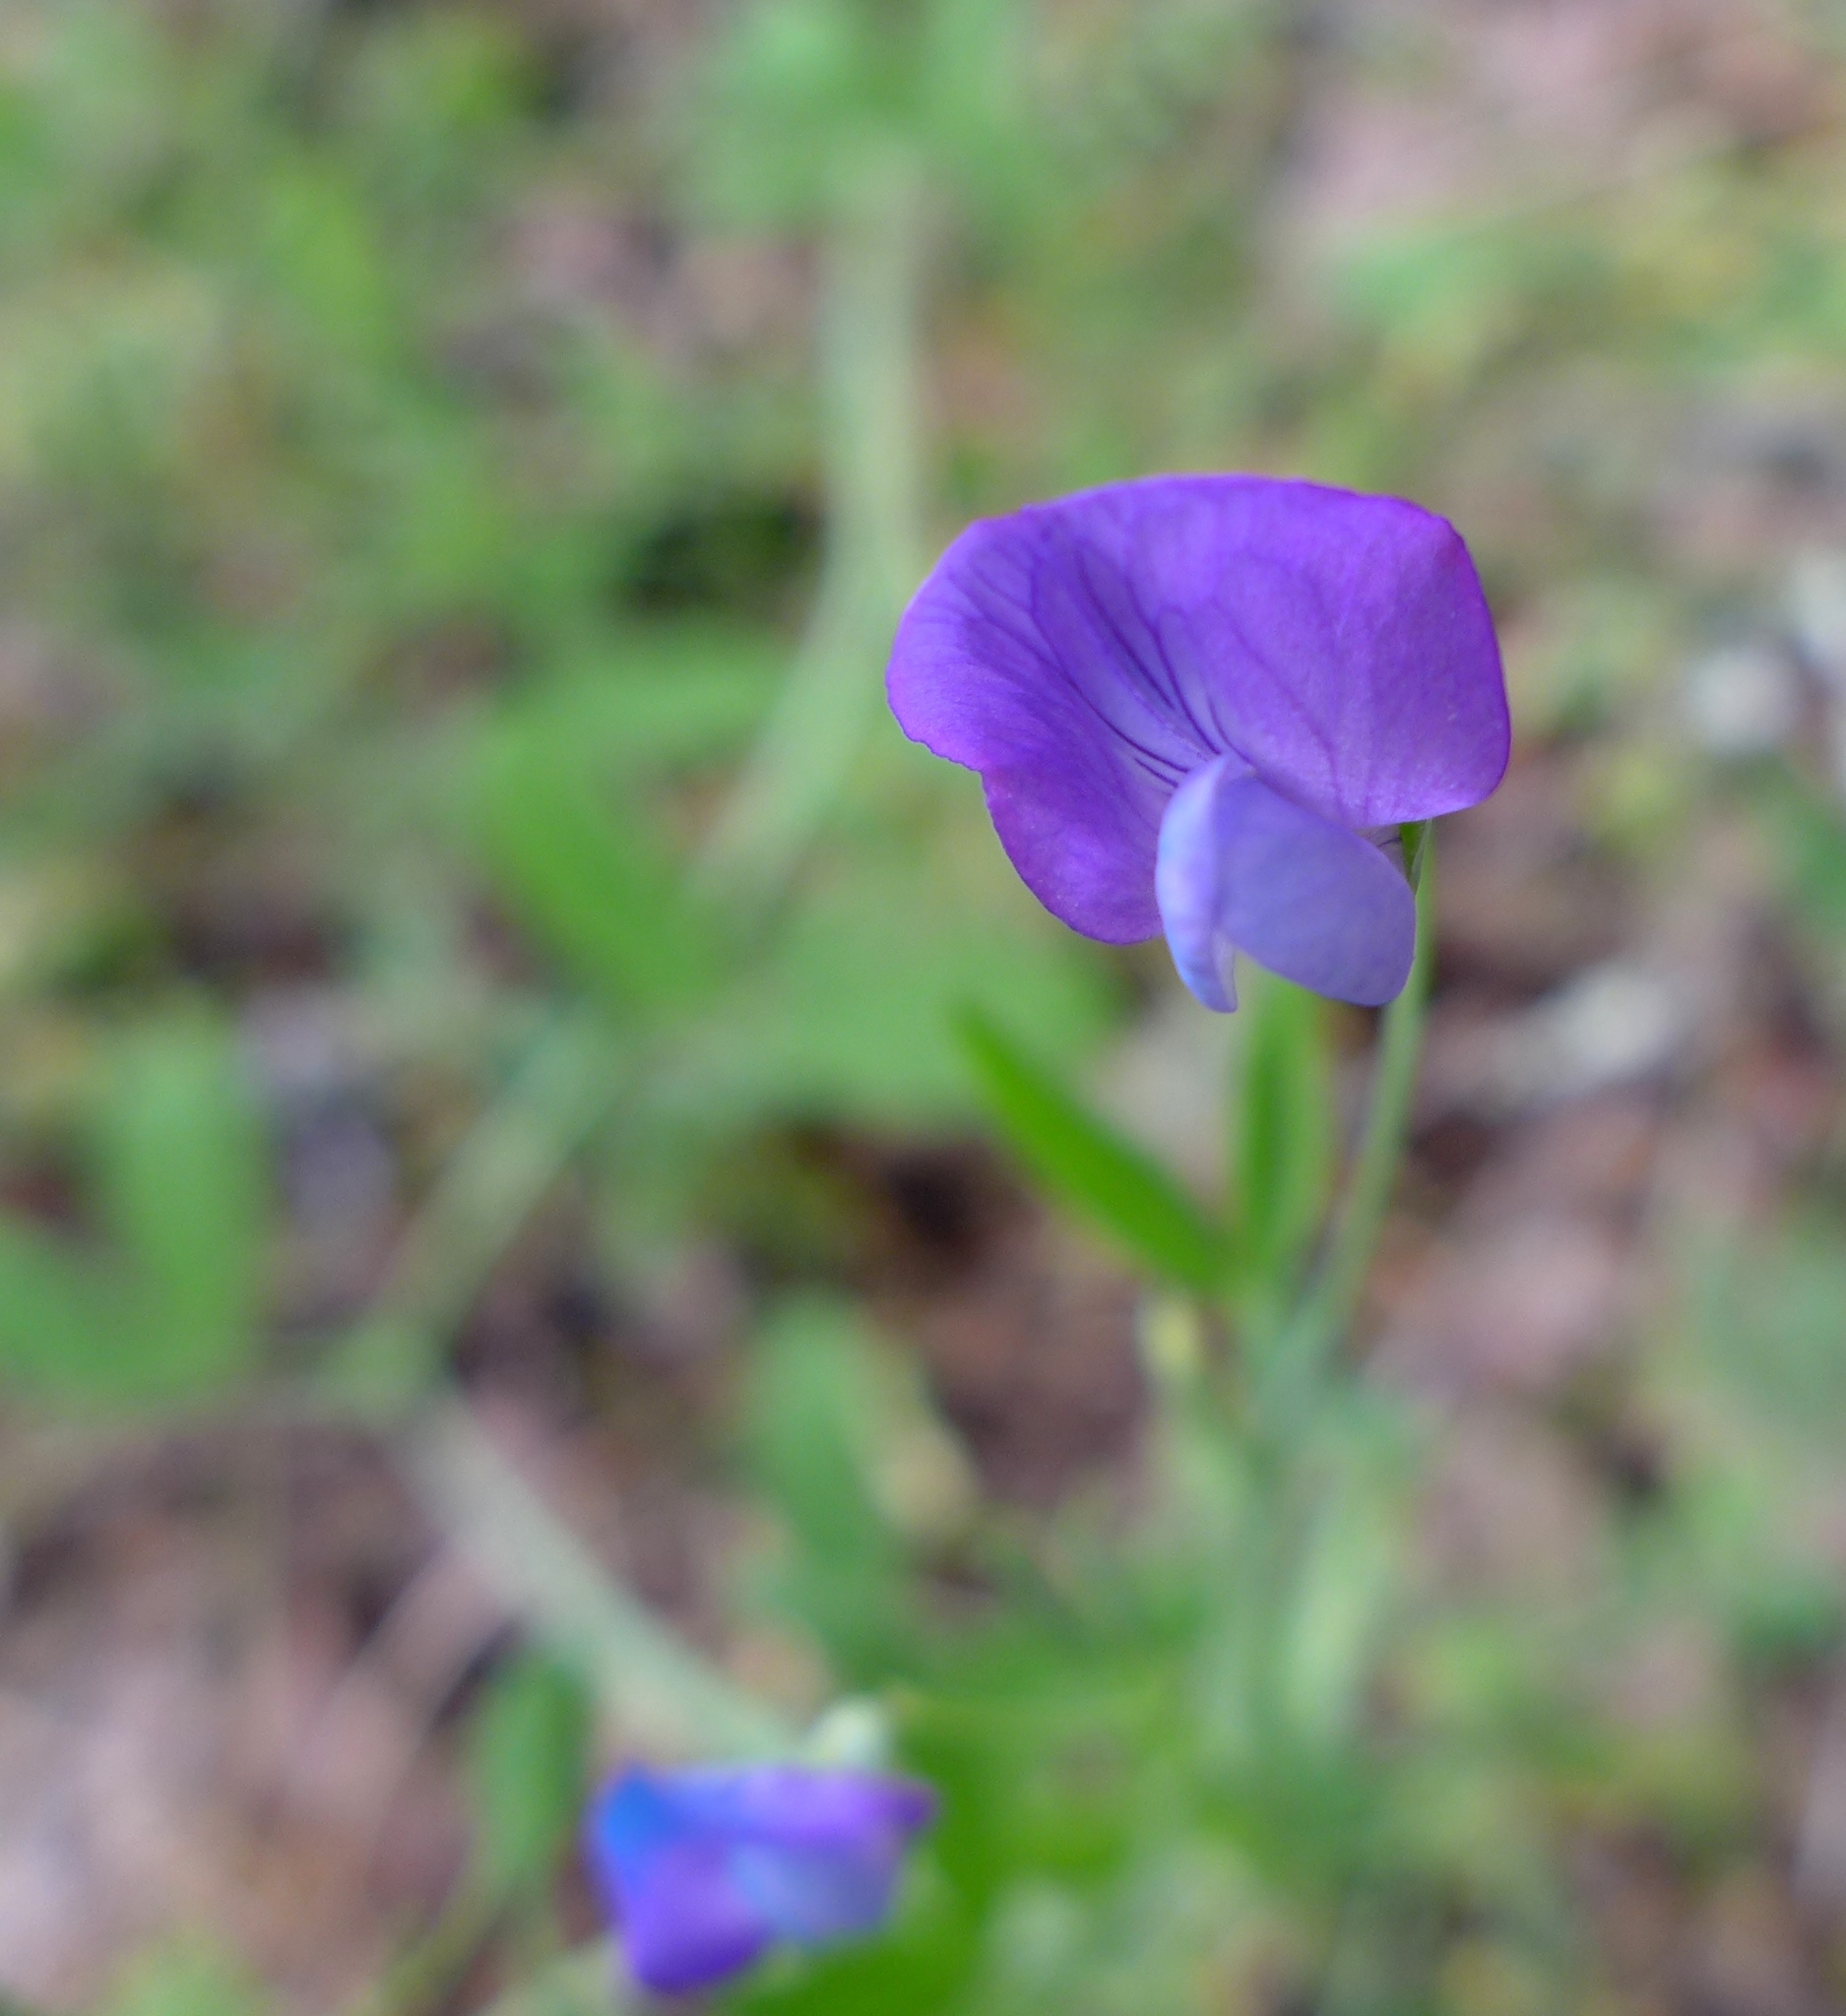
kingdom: Plantae
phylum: Tracheophyta
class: Magnoliopsida
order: Fabales
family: Fabaceae
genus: Lathyrus
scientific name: Lathyrus hirsutus
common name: Hairy vetchling
